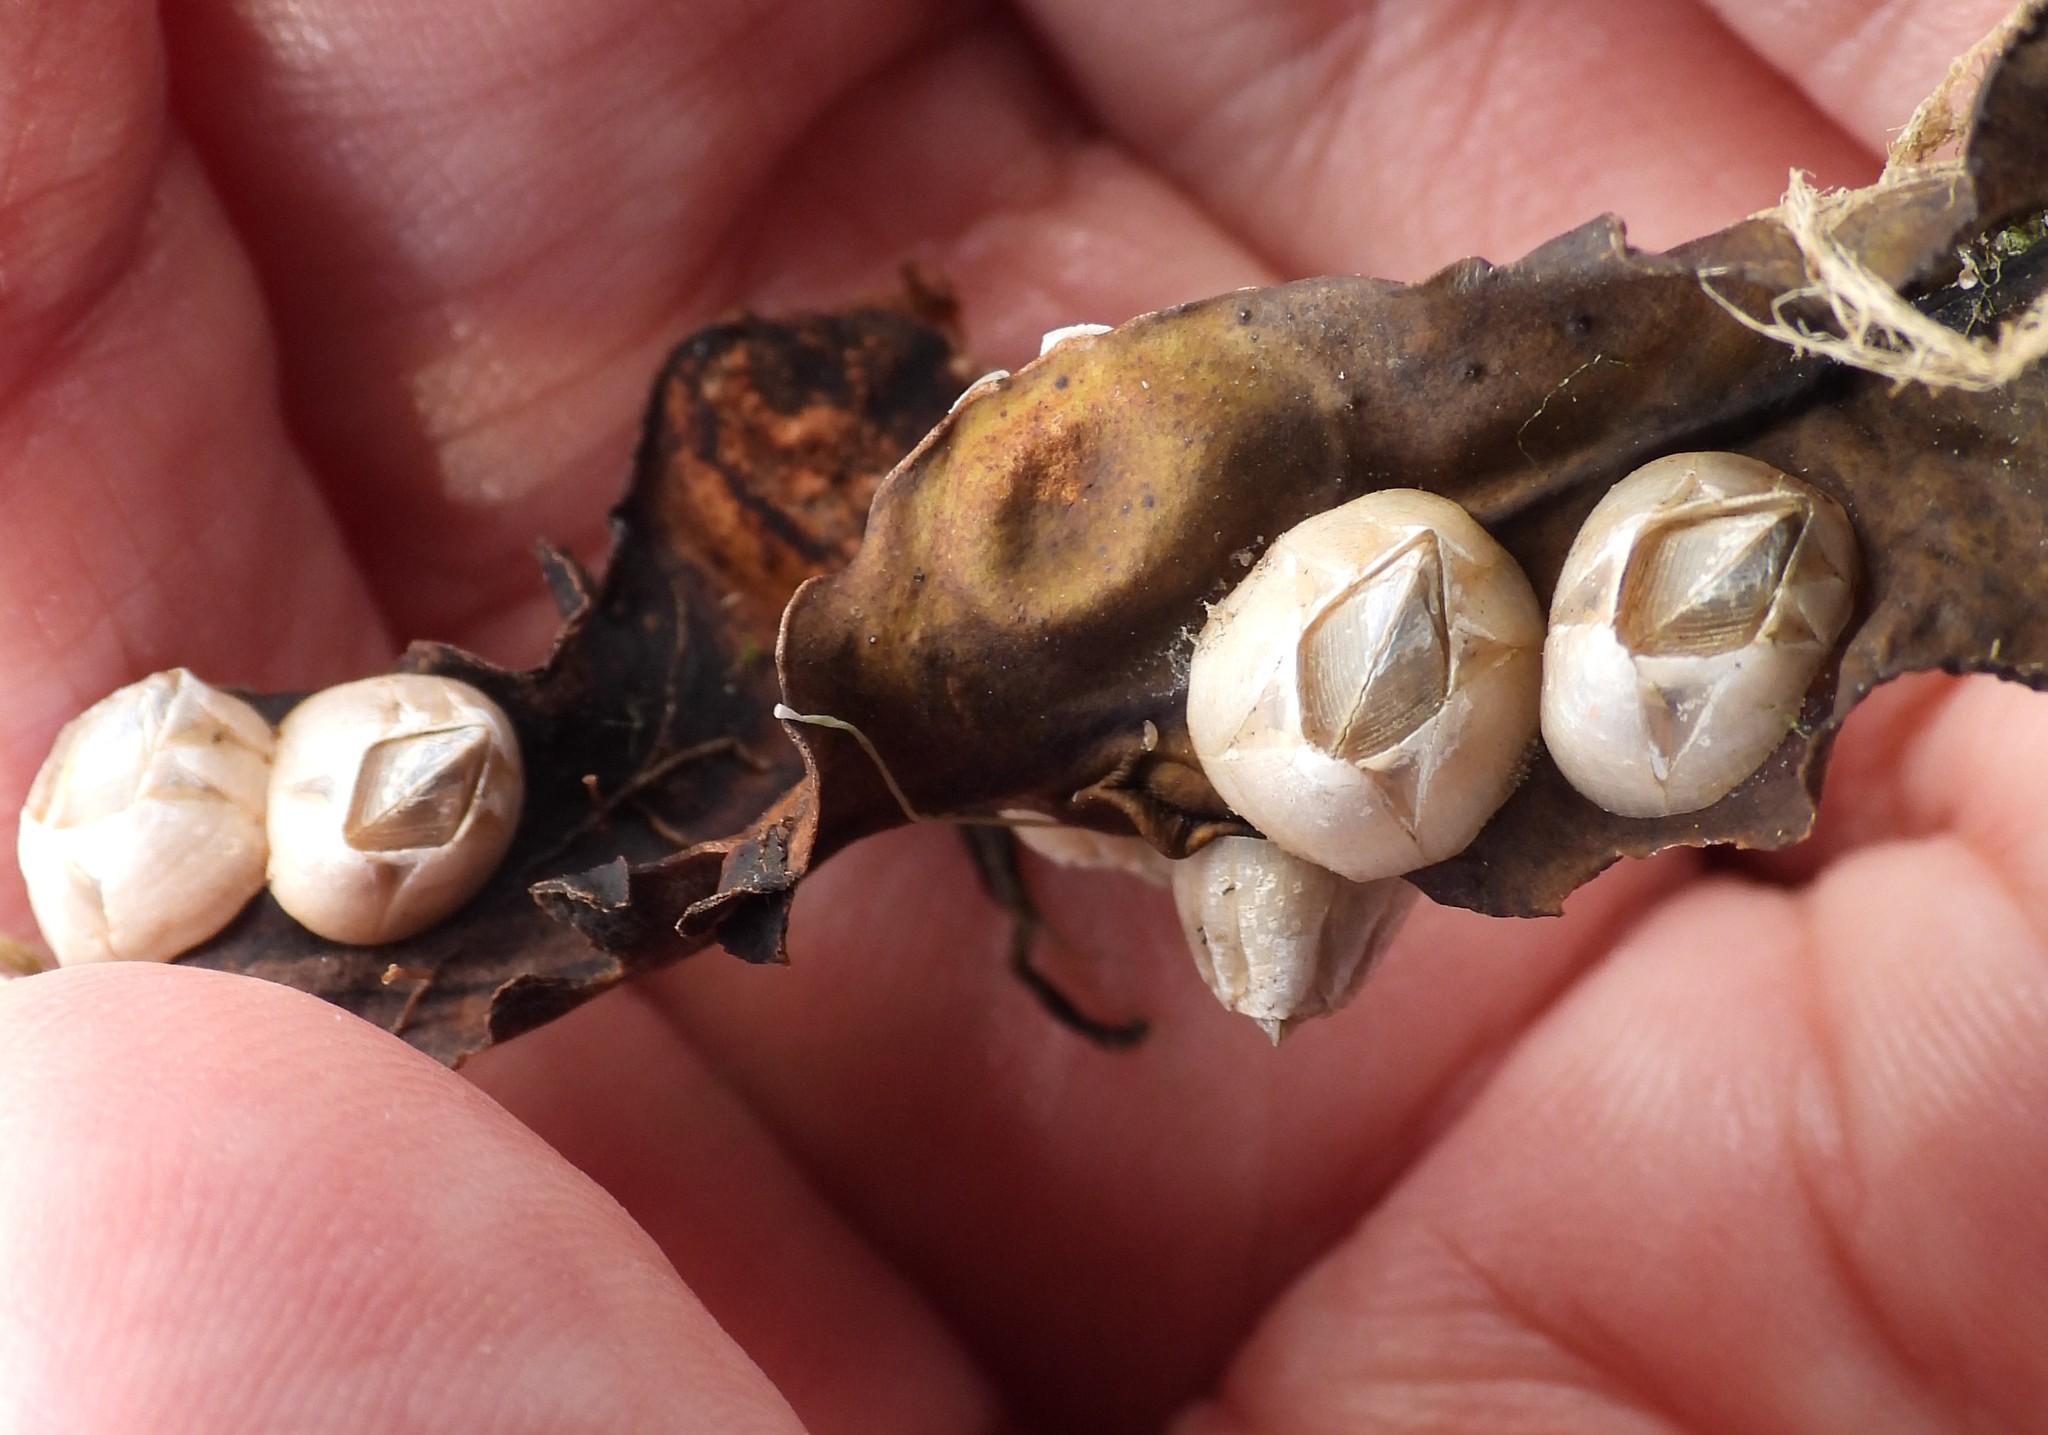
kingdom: Animalia
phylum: Arthropoda
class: Maxillopoda
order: Sessilia
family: Balanidae
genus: Amphibalanus
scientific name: Amphibalanus improvisus
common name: Bay barnacle
